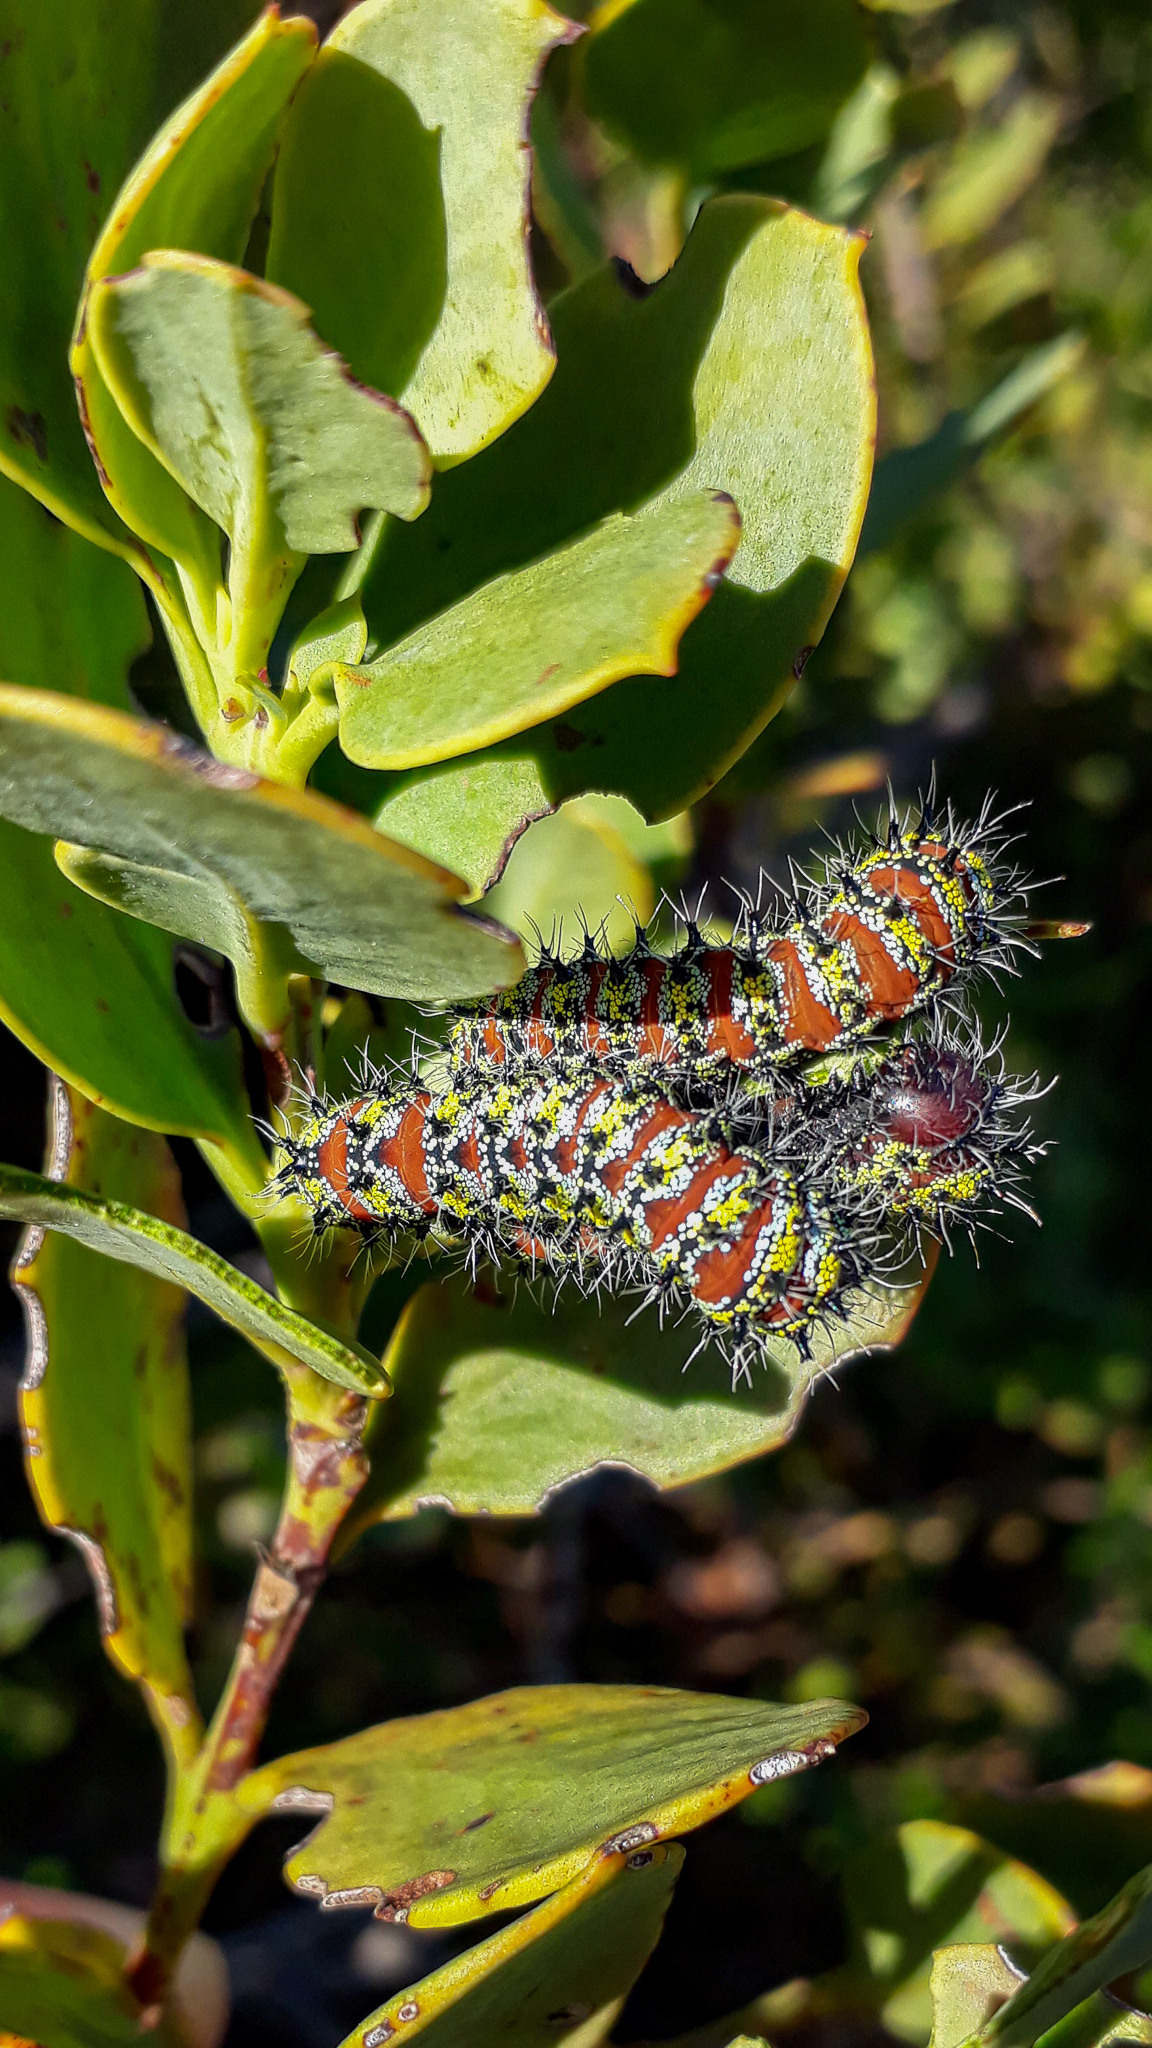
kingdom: Animalia
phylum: Arthropoda
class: Insecta
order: Lepidoptera
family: Saturniidae
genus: Nudaurelia
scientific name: Nudaurelia cytherea
